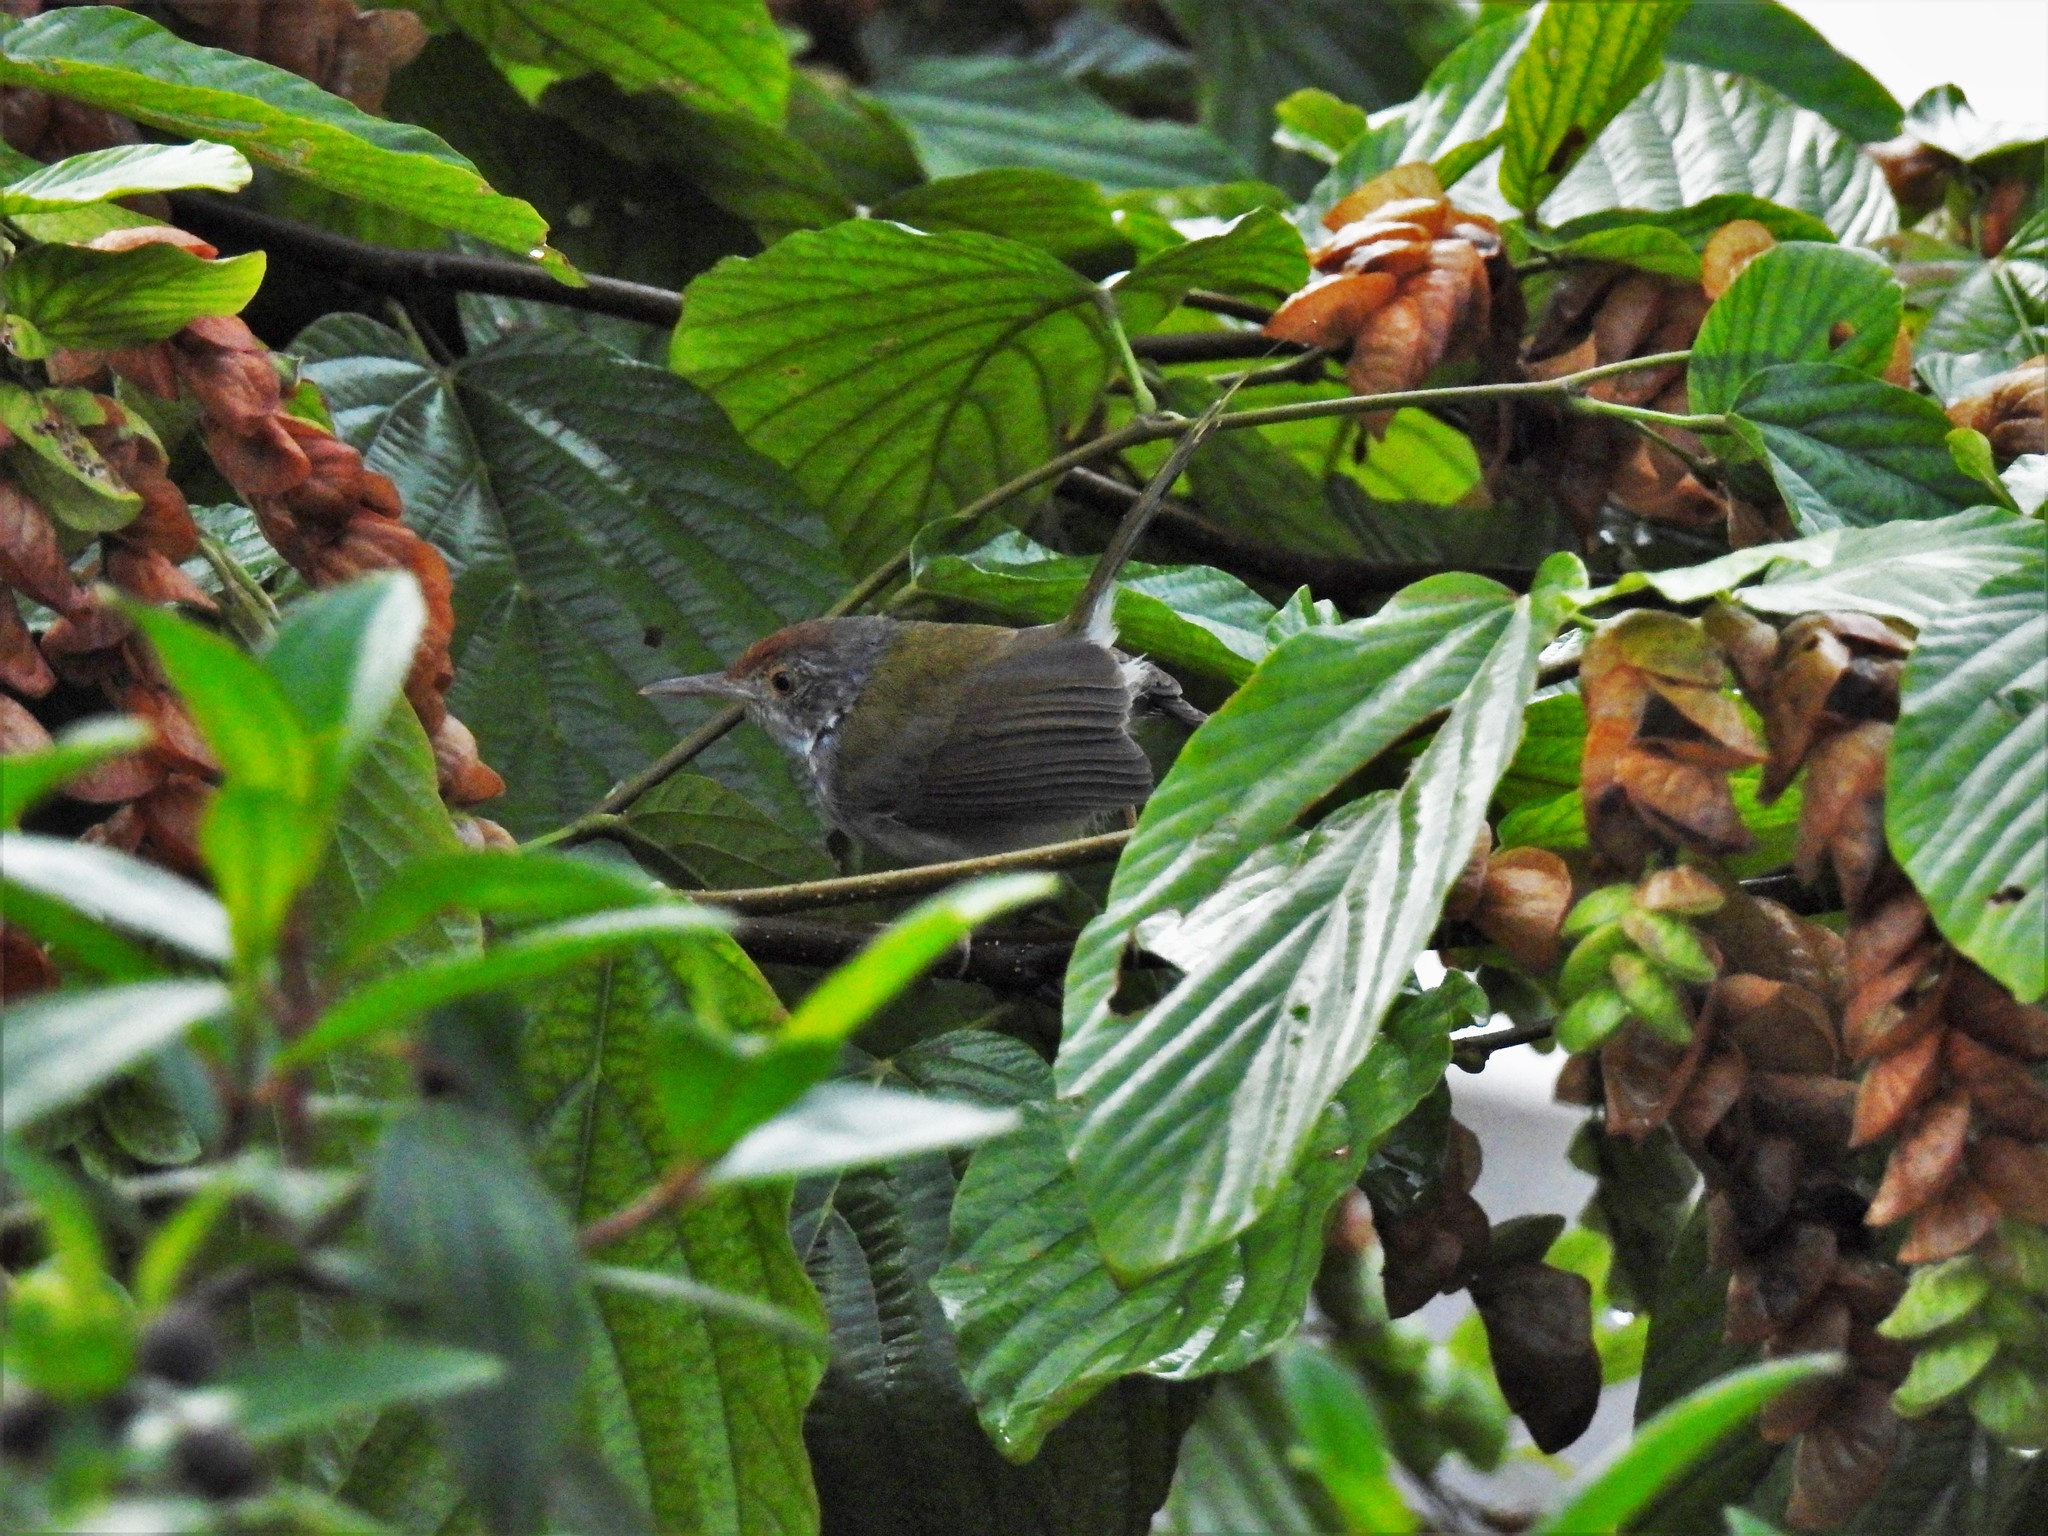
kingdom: Animalia
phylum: Chordata
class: Aves
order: Passeriformes
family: Cisticolidae
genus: Orthotomus
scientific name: Orthotomus sutorius
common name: Common tailorbird
